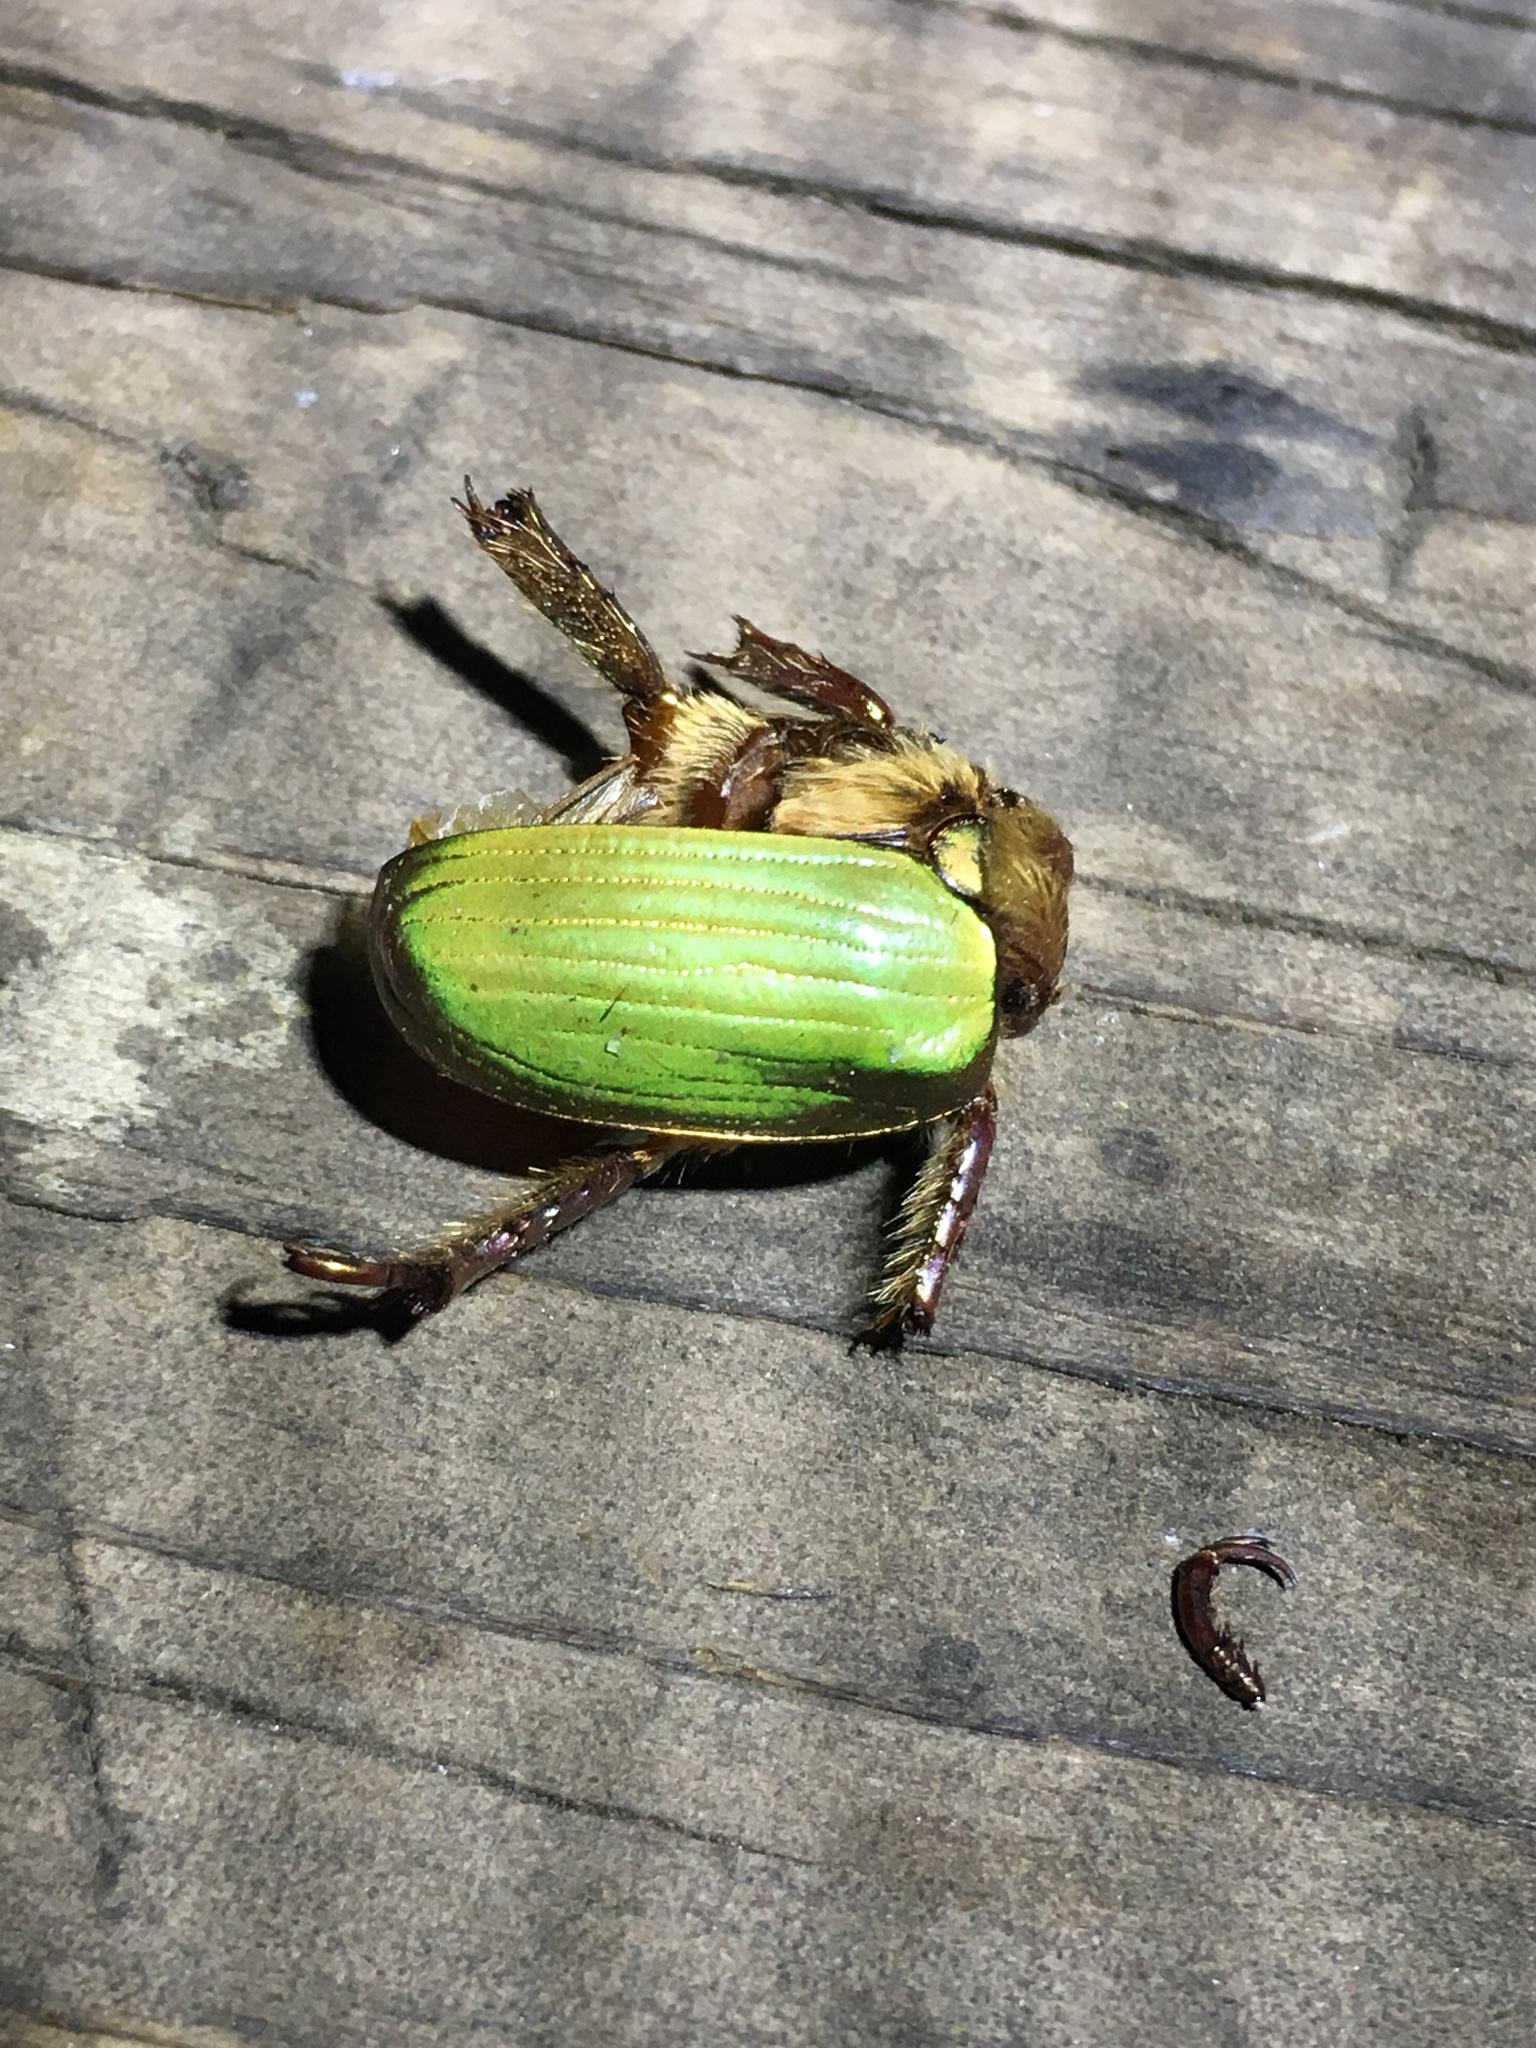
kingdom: Animalia
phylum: Arthropoda
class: Insecta
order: Coleoptera
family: Scarabaeidae
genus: Chrysina
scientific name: Chrysina lecontei
